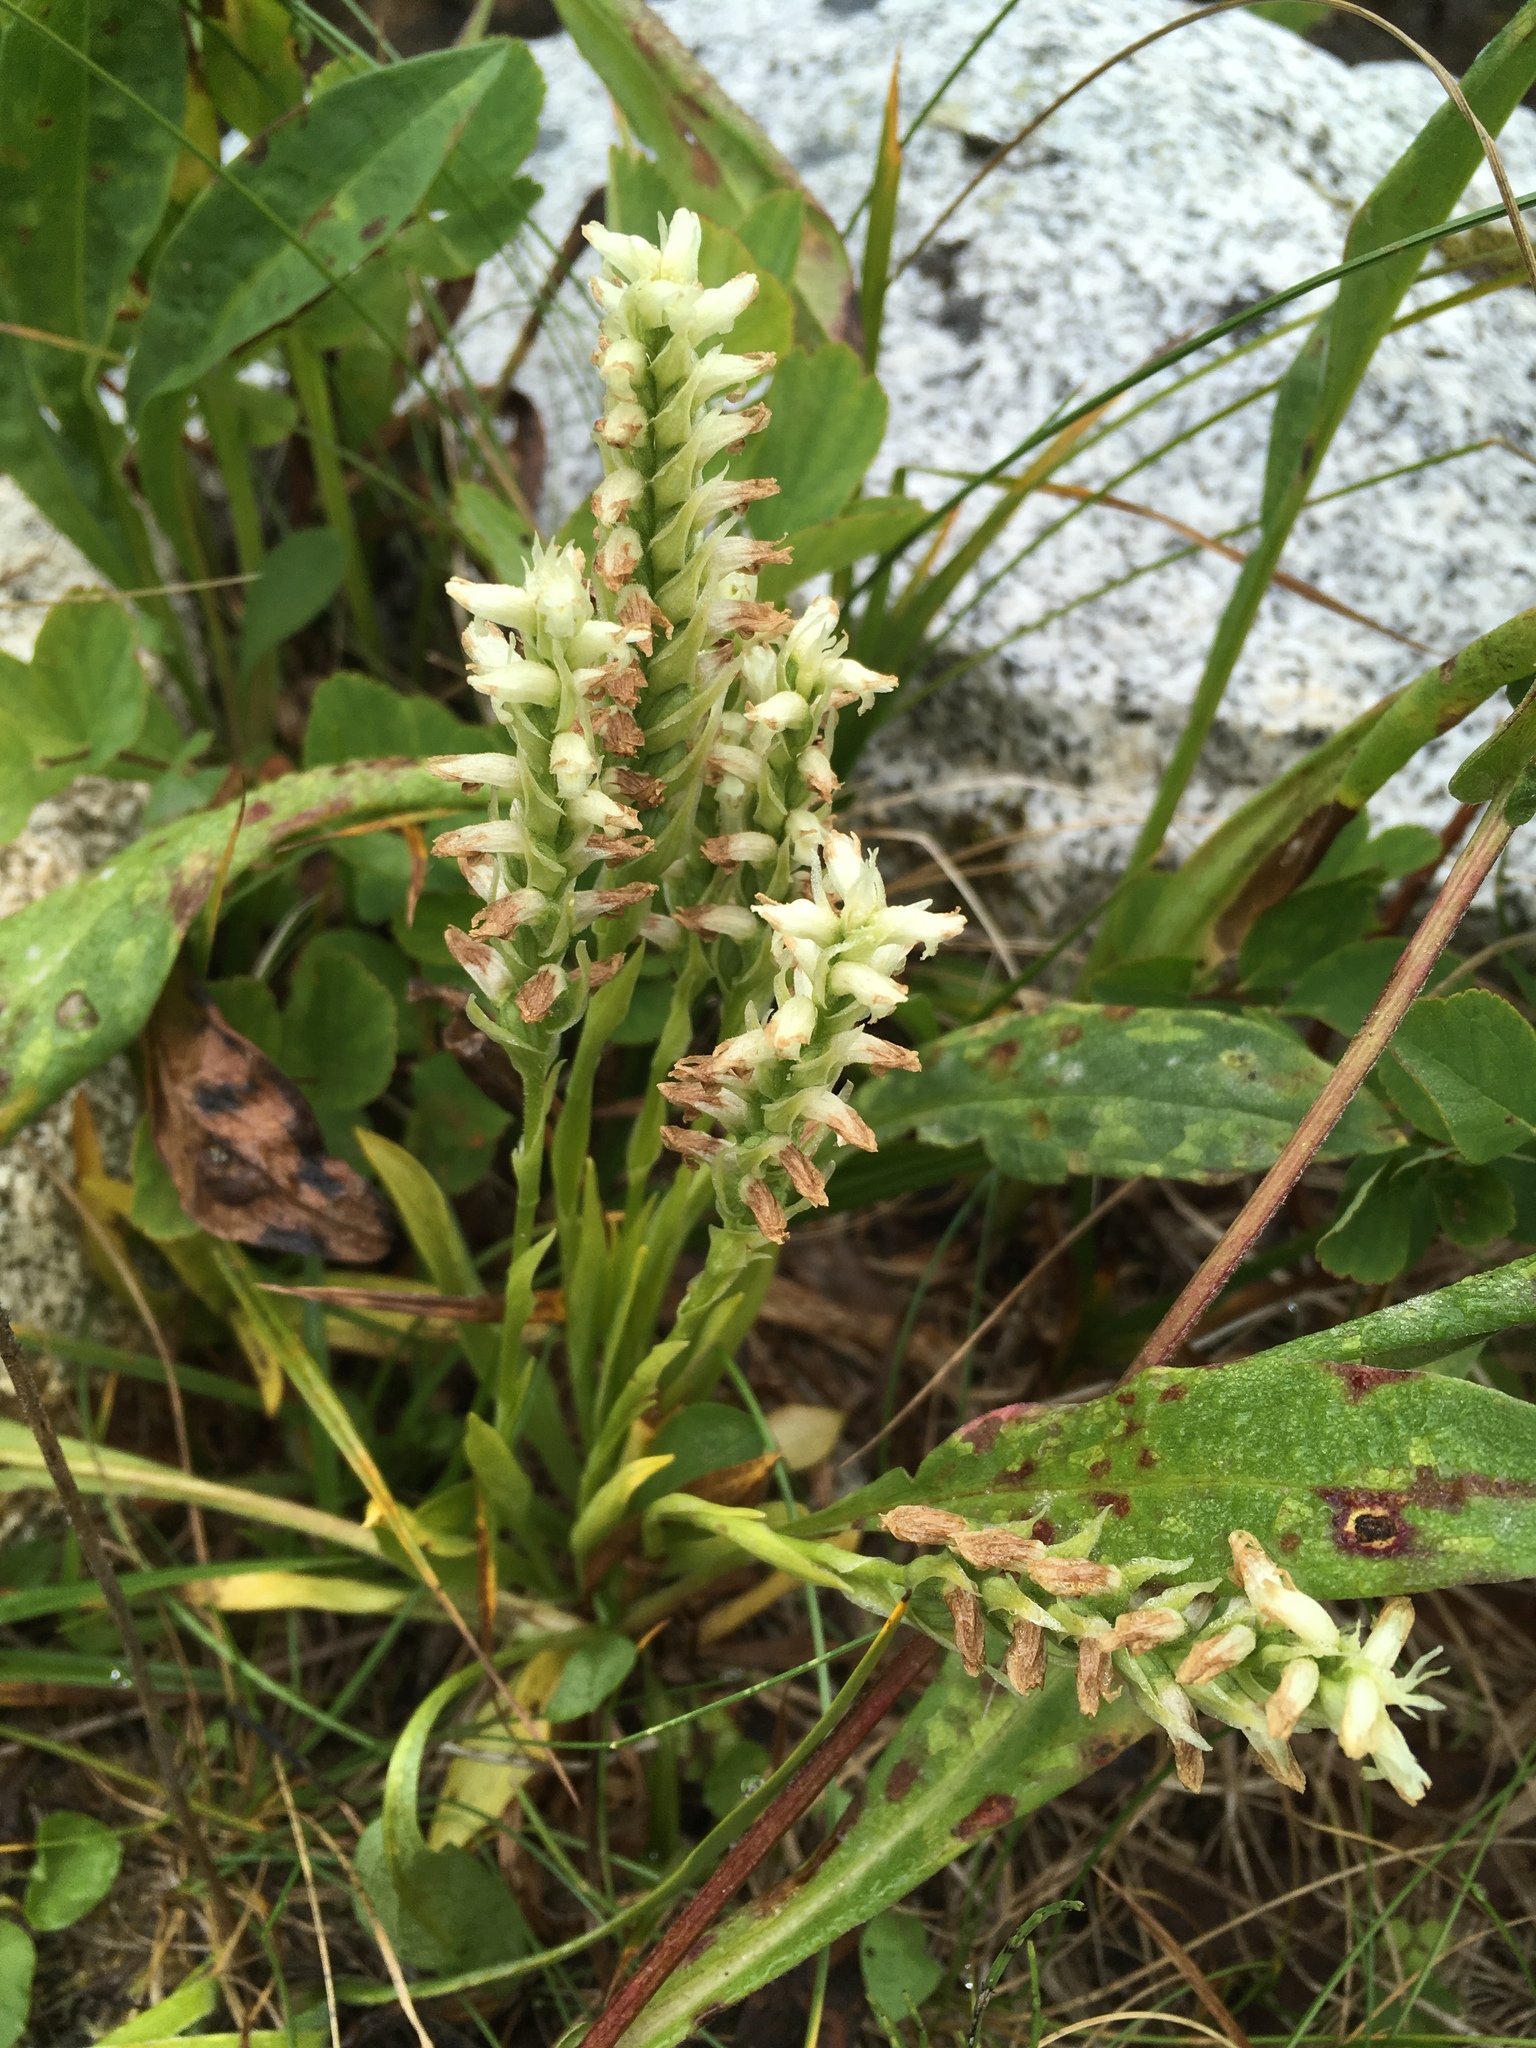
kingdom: Plantae
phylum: Tracheophyta
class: Liliopsida
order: Asparagales
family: Orchidaceae
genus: Spiranthes
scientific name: Spiranthes romanzoffiana
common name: Irish lady's-tresses
